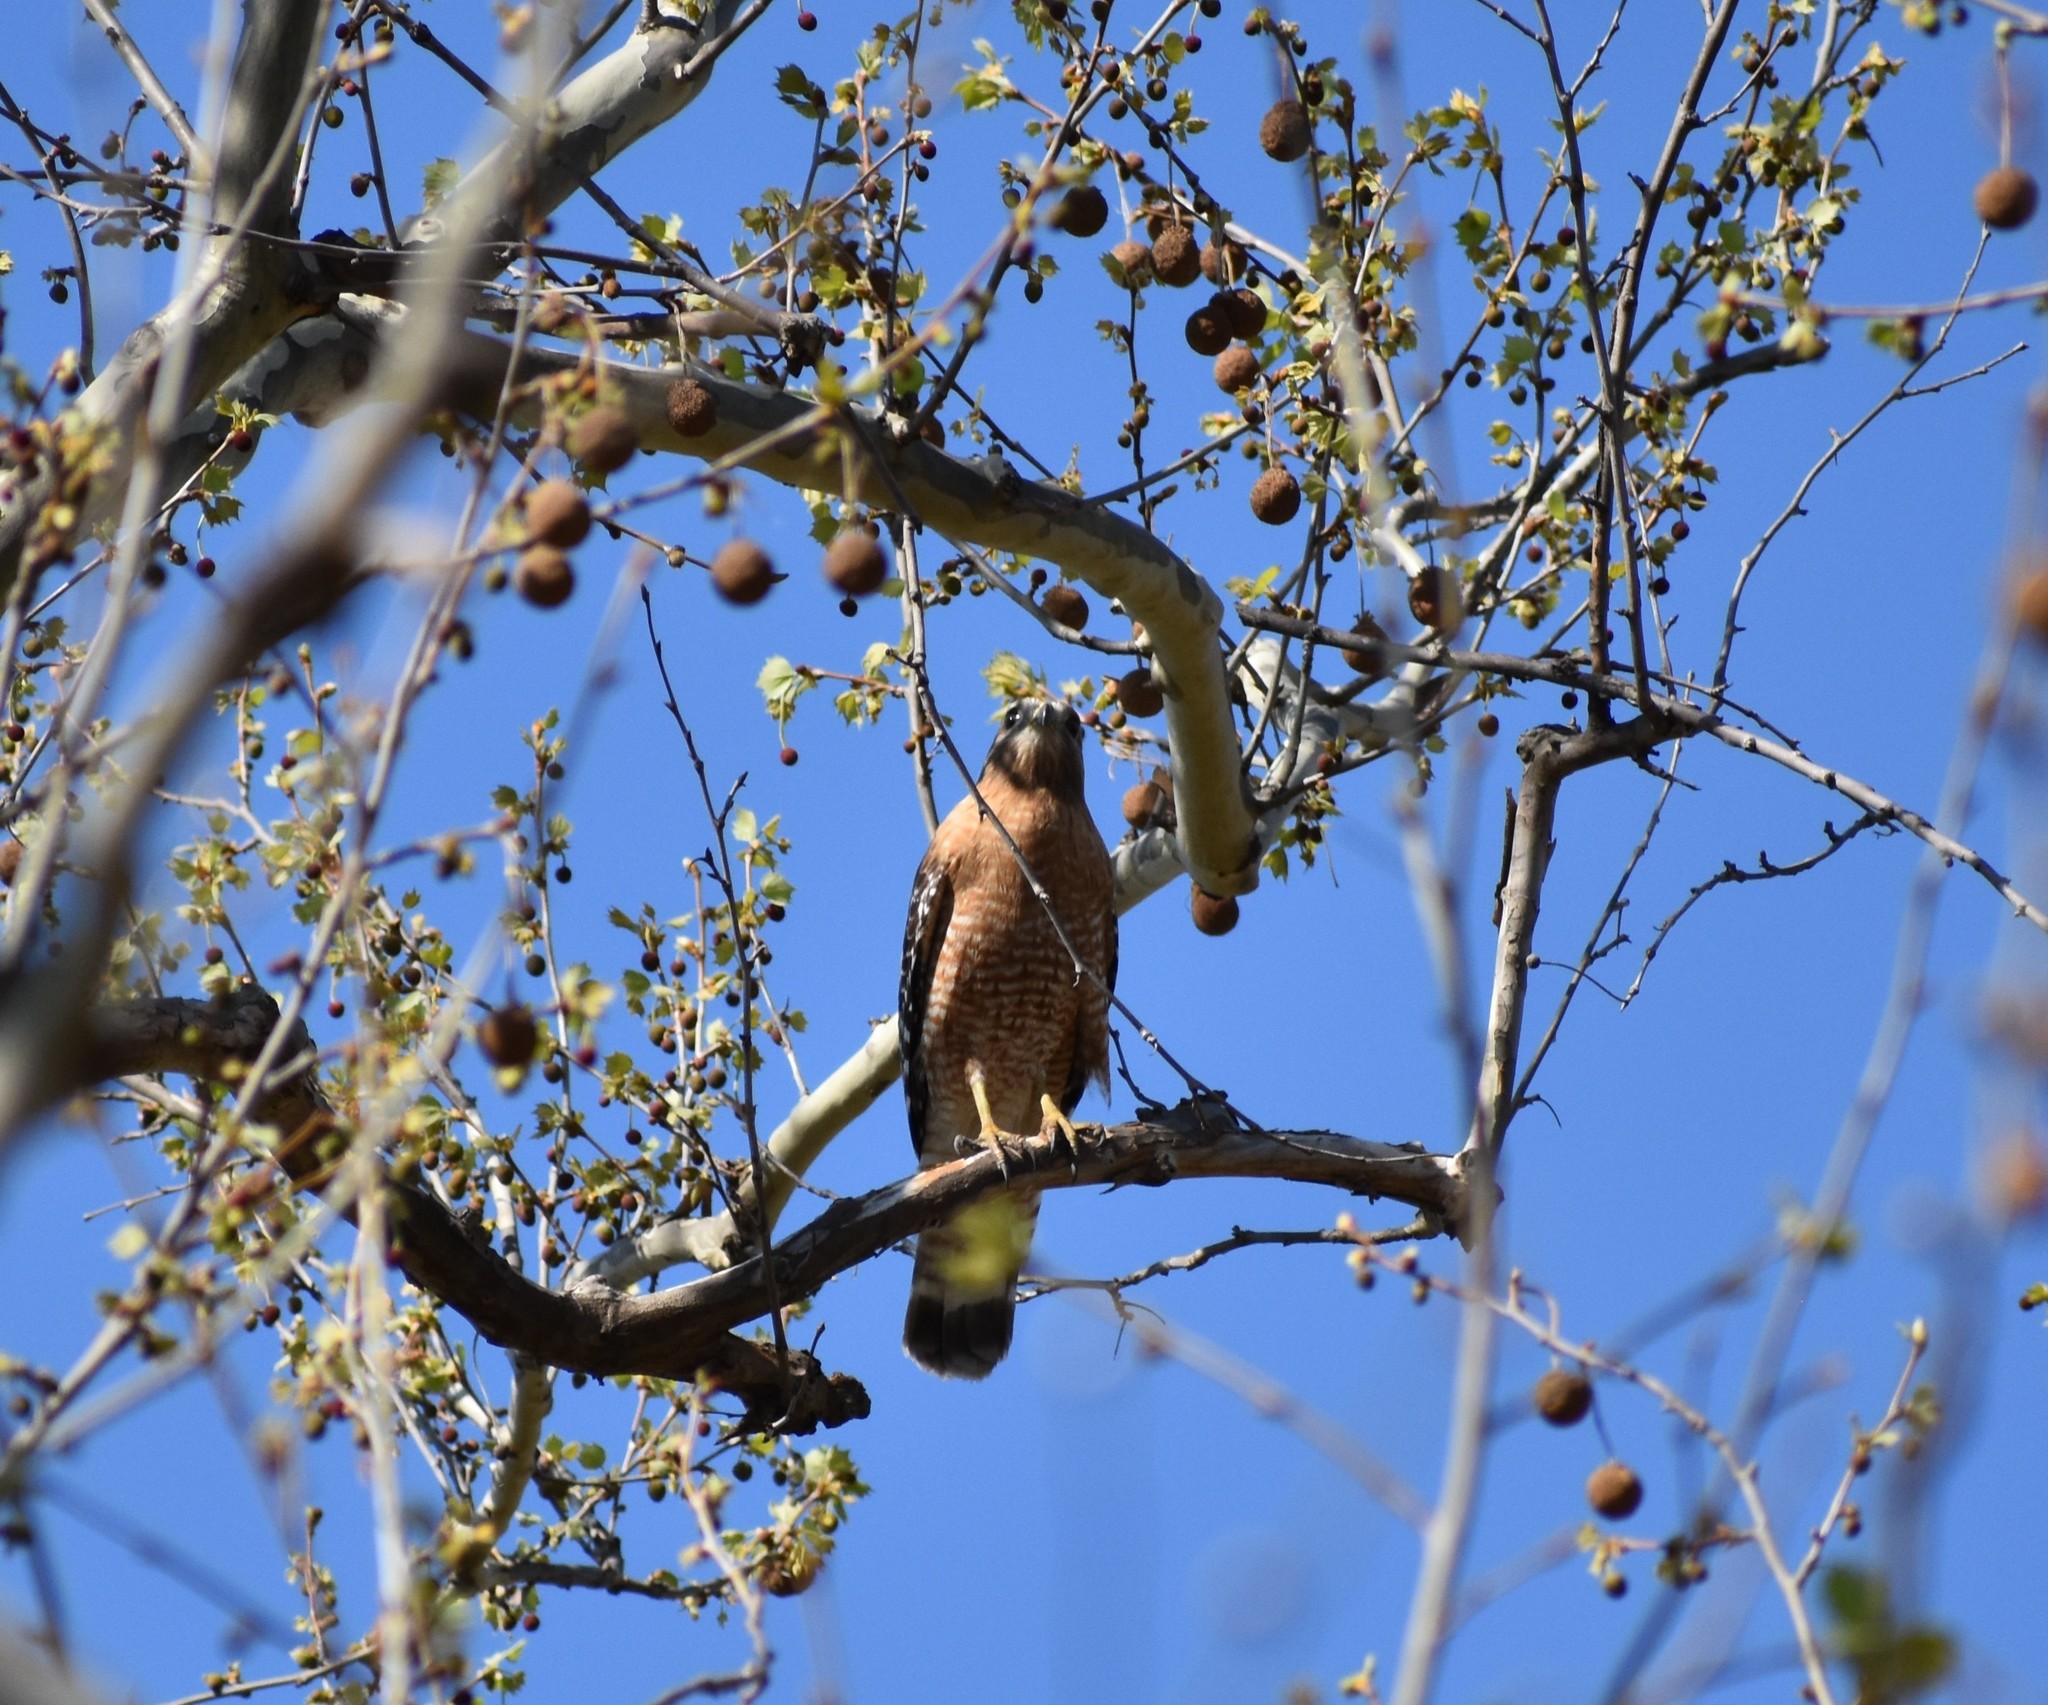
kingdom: Animalia
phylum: Chordata
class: Aves
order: Accipitriformes
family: Accipitridae
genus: Buteo
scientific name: Buteo lineatus
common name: Red-shouldered hawk
